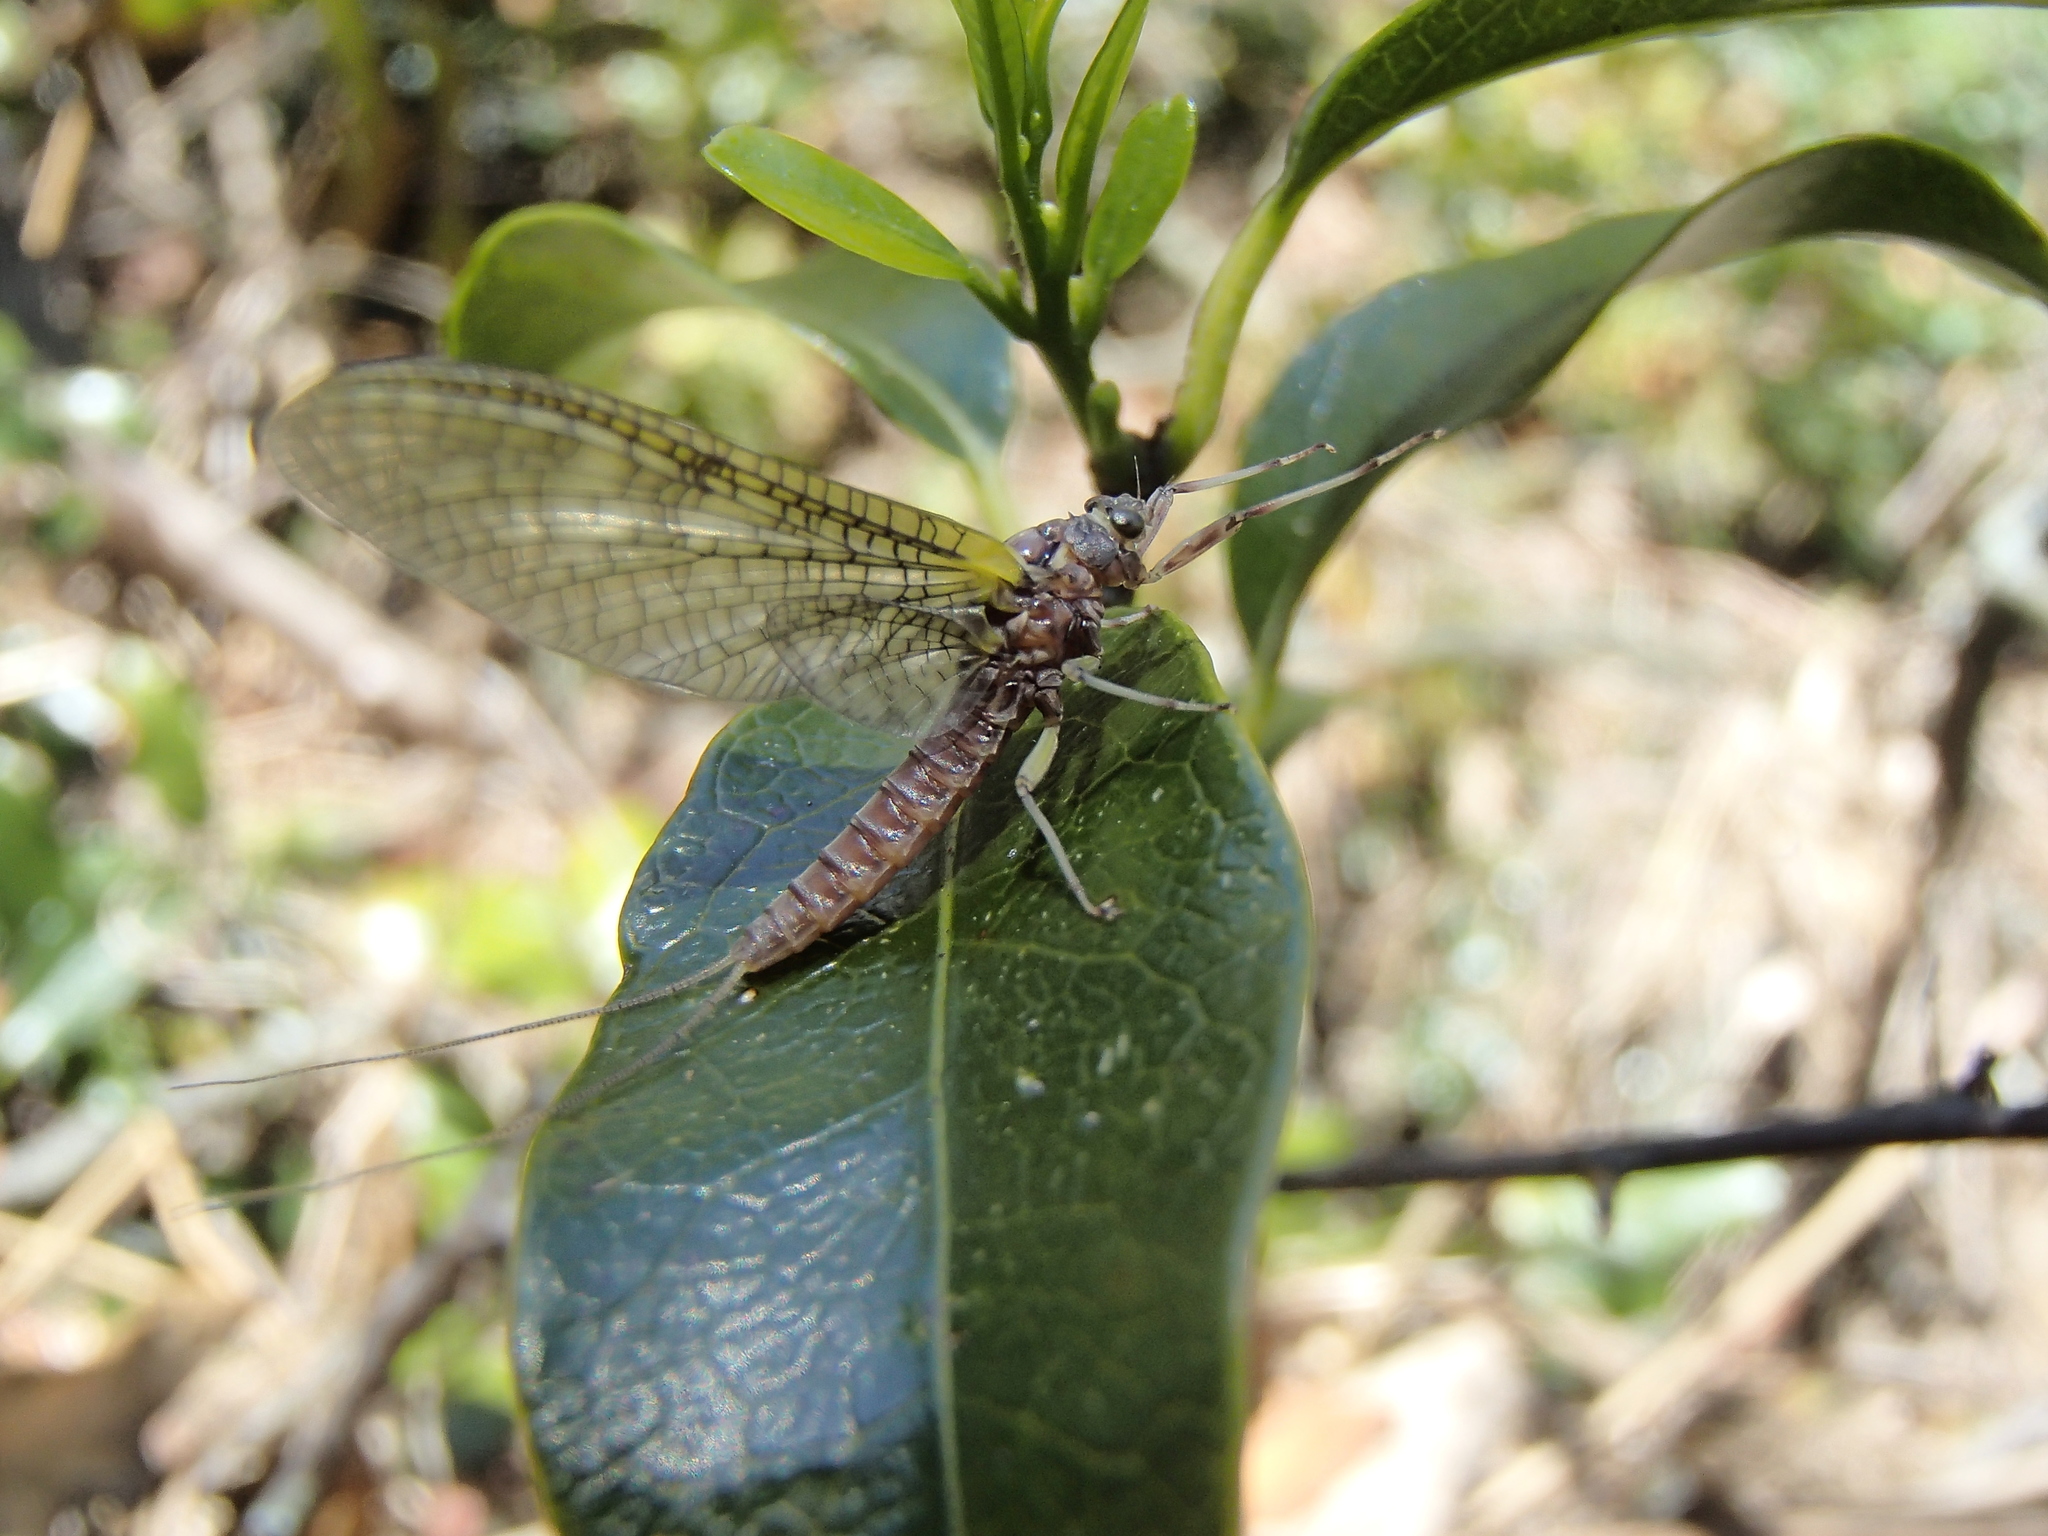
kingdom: Animalia
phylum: Arthropoda
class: Insecta
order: Ephemeroptera
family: Coloburiscidae
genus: Coloburiscus
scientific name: Coloburiscus humeralis
